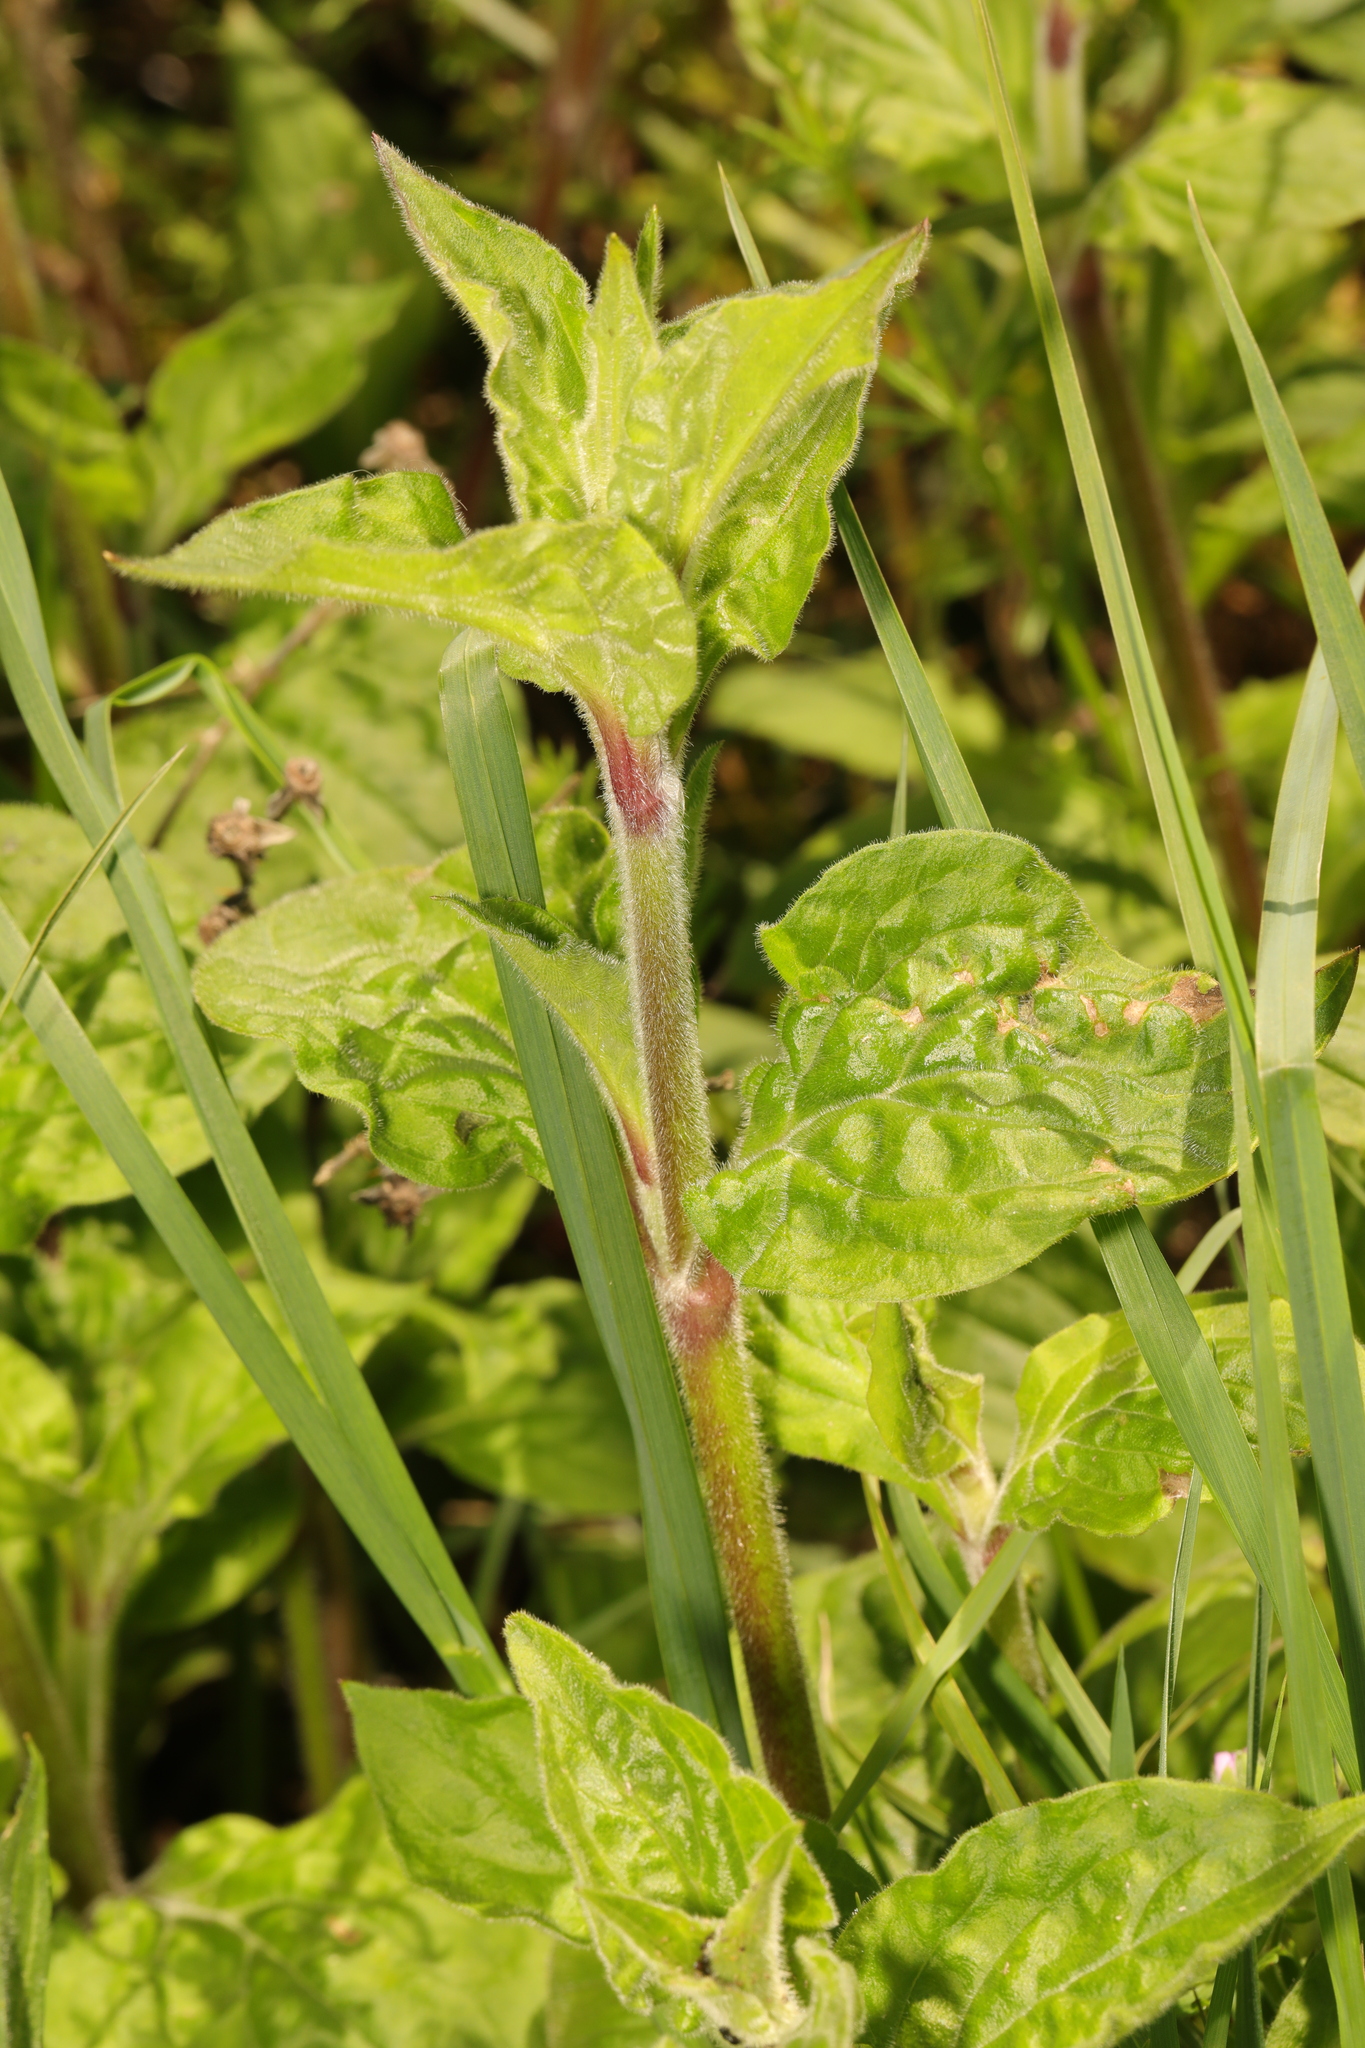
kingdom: Plantae
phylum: Tracheophyta
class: Magnoliopsida
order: Caryophyllales
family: Caryophyllaceae
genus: Silene
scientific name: Silene dioica
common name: Red campion
